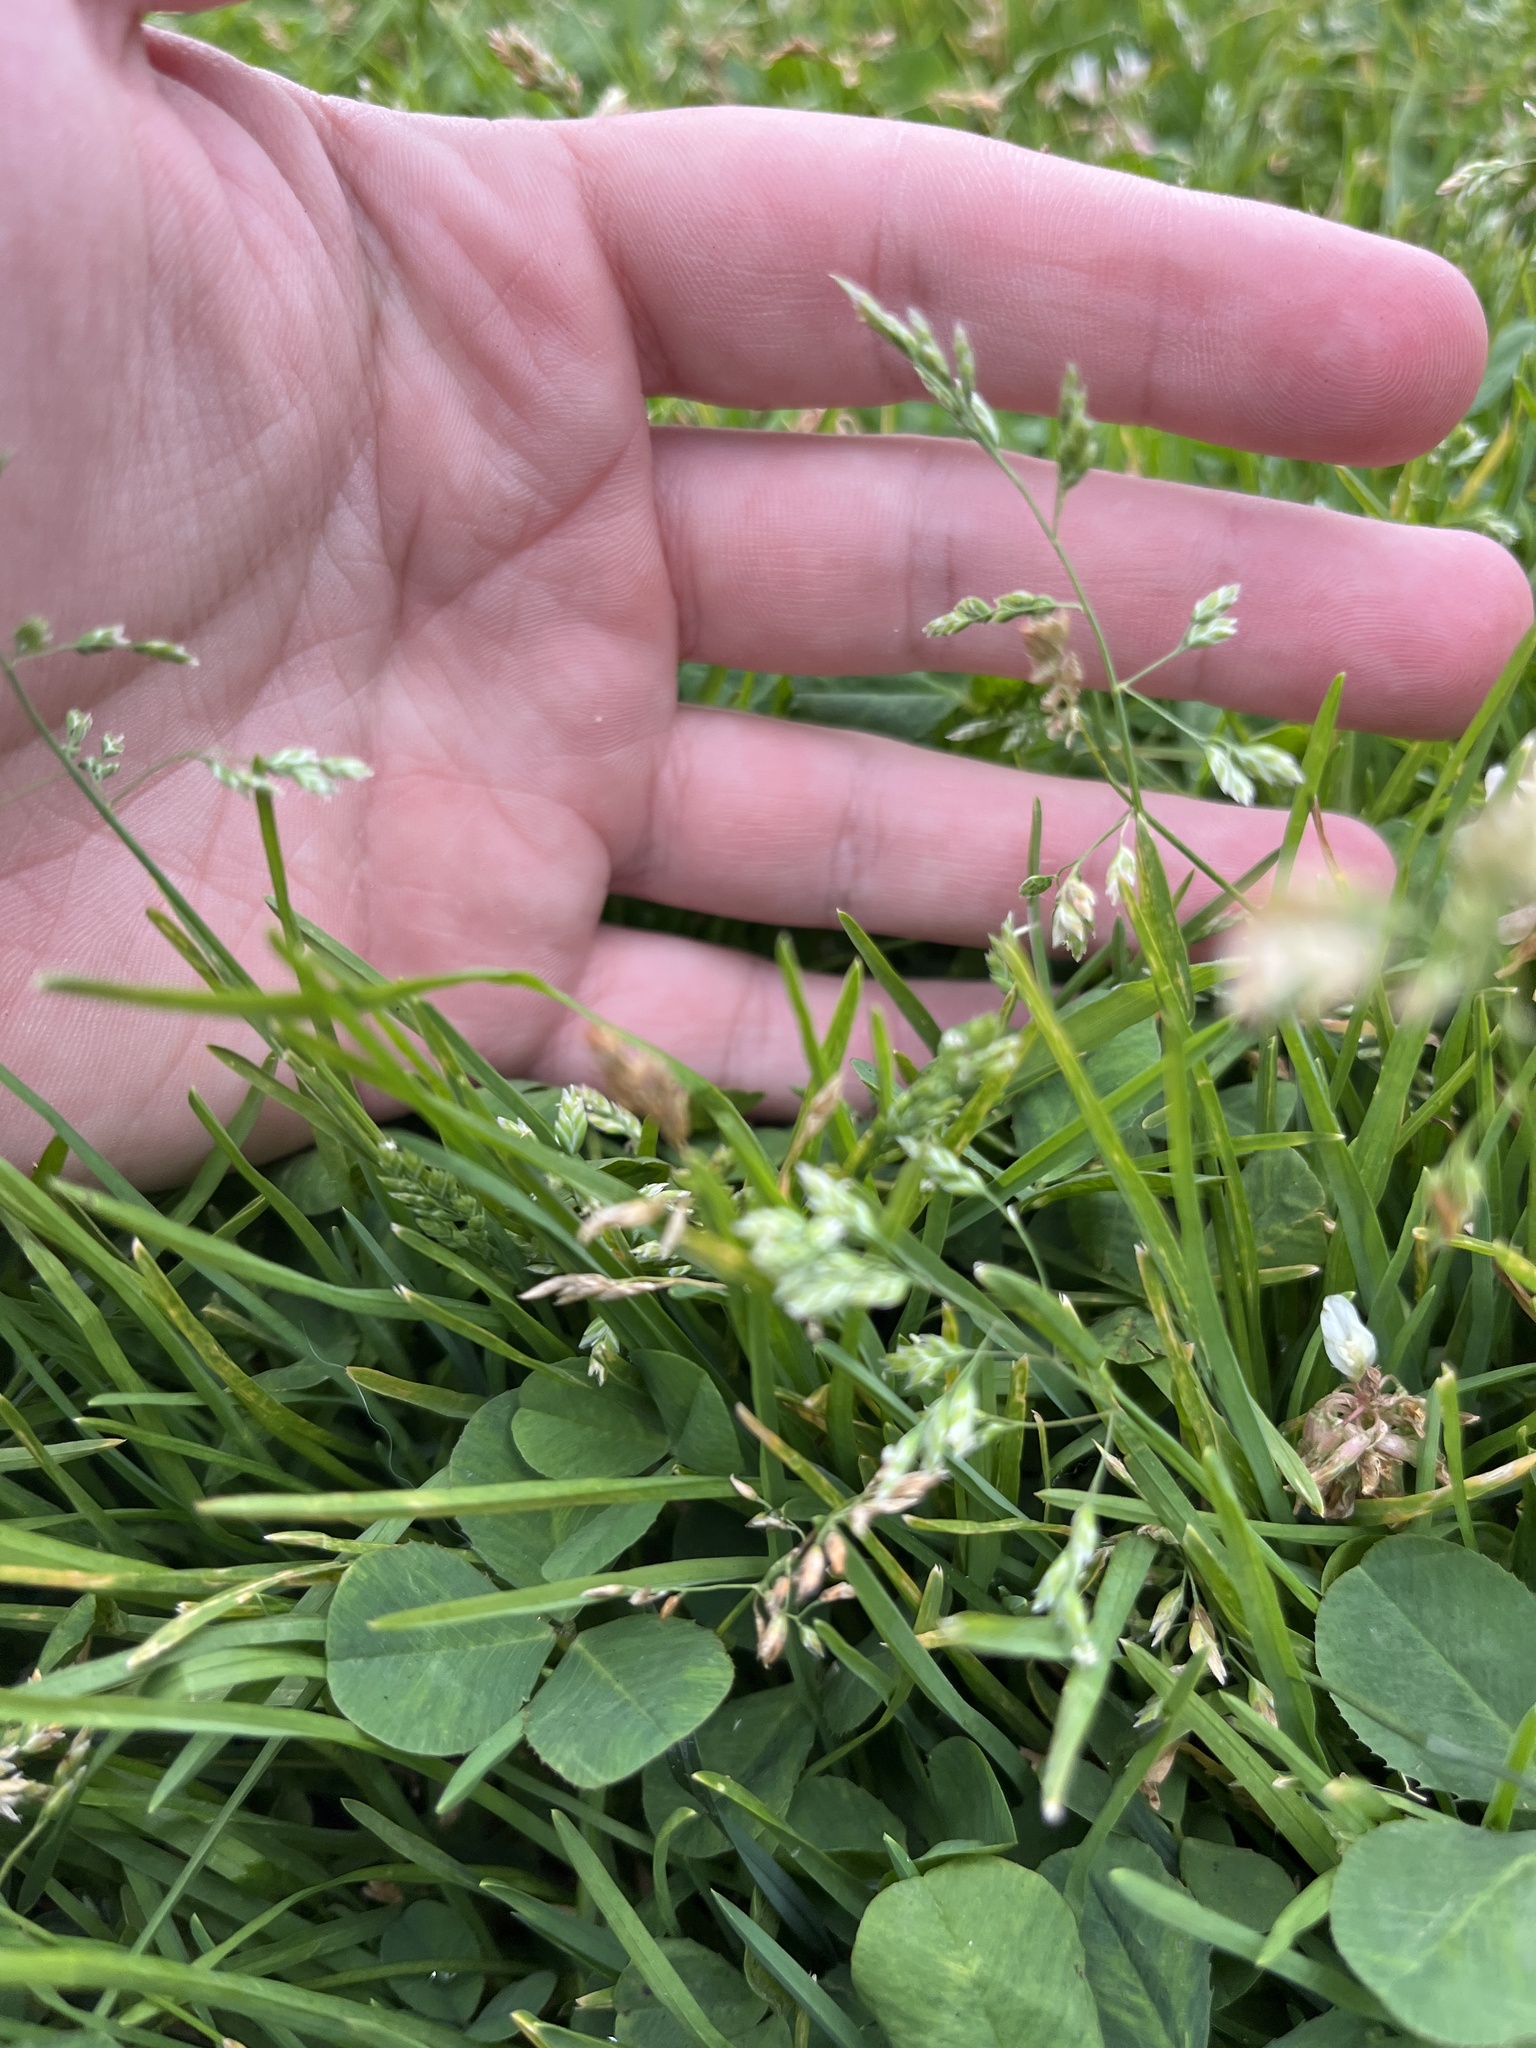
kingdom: Plantae
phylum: Tracheophyta
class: Liliopsida
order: Poales
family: Poaceae
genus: Poa
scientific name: Poa annua
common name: Annual bluegrass
